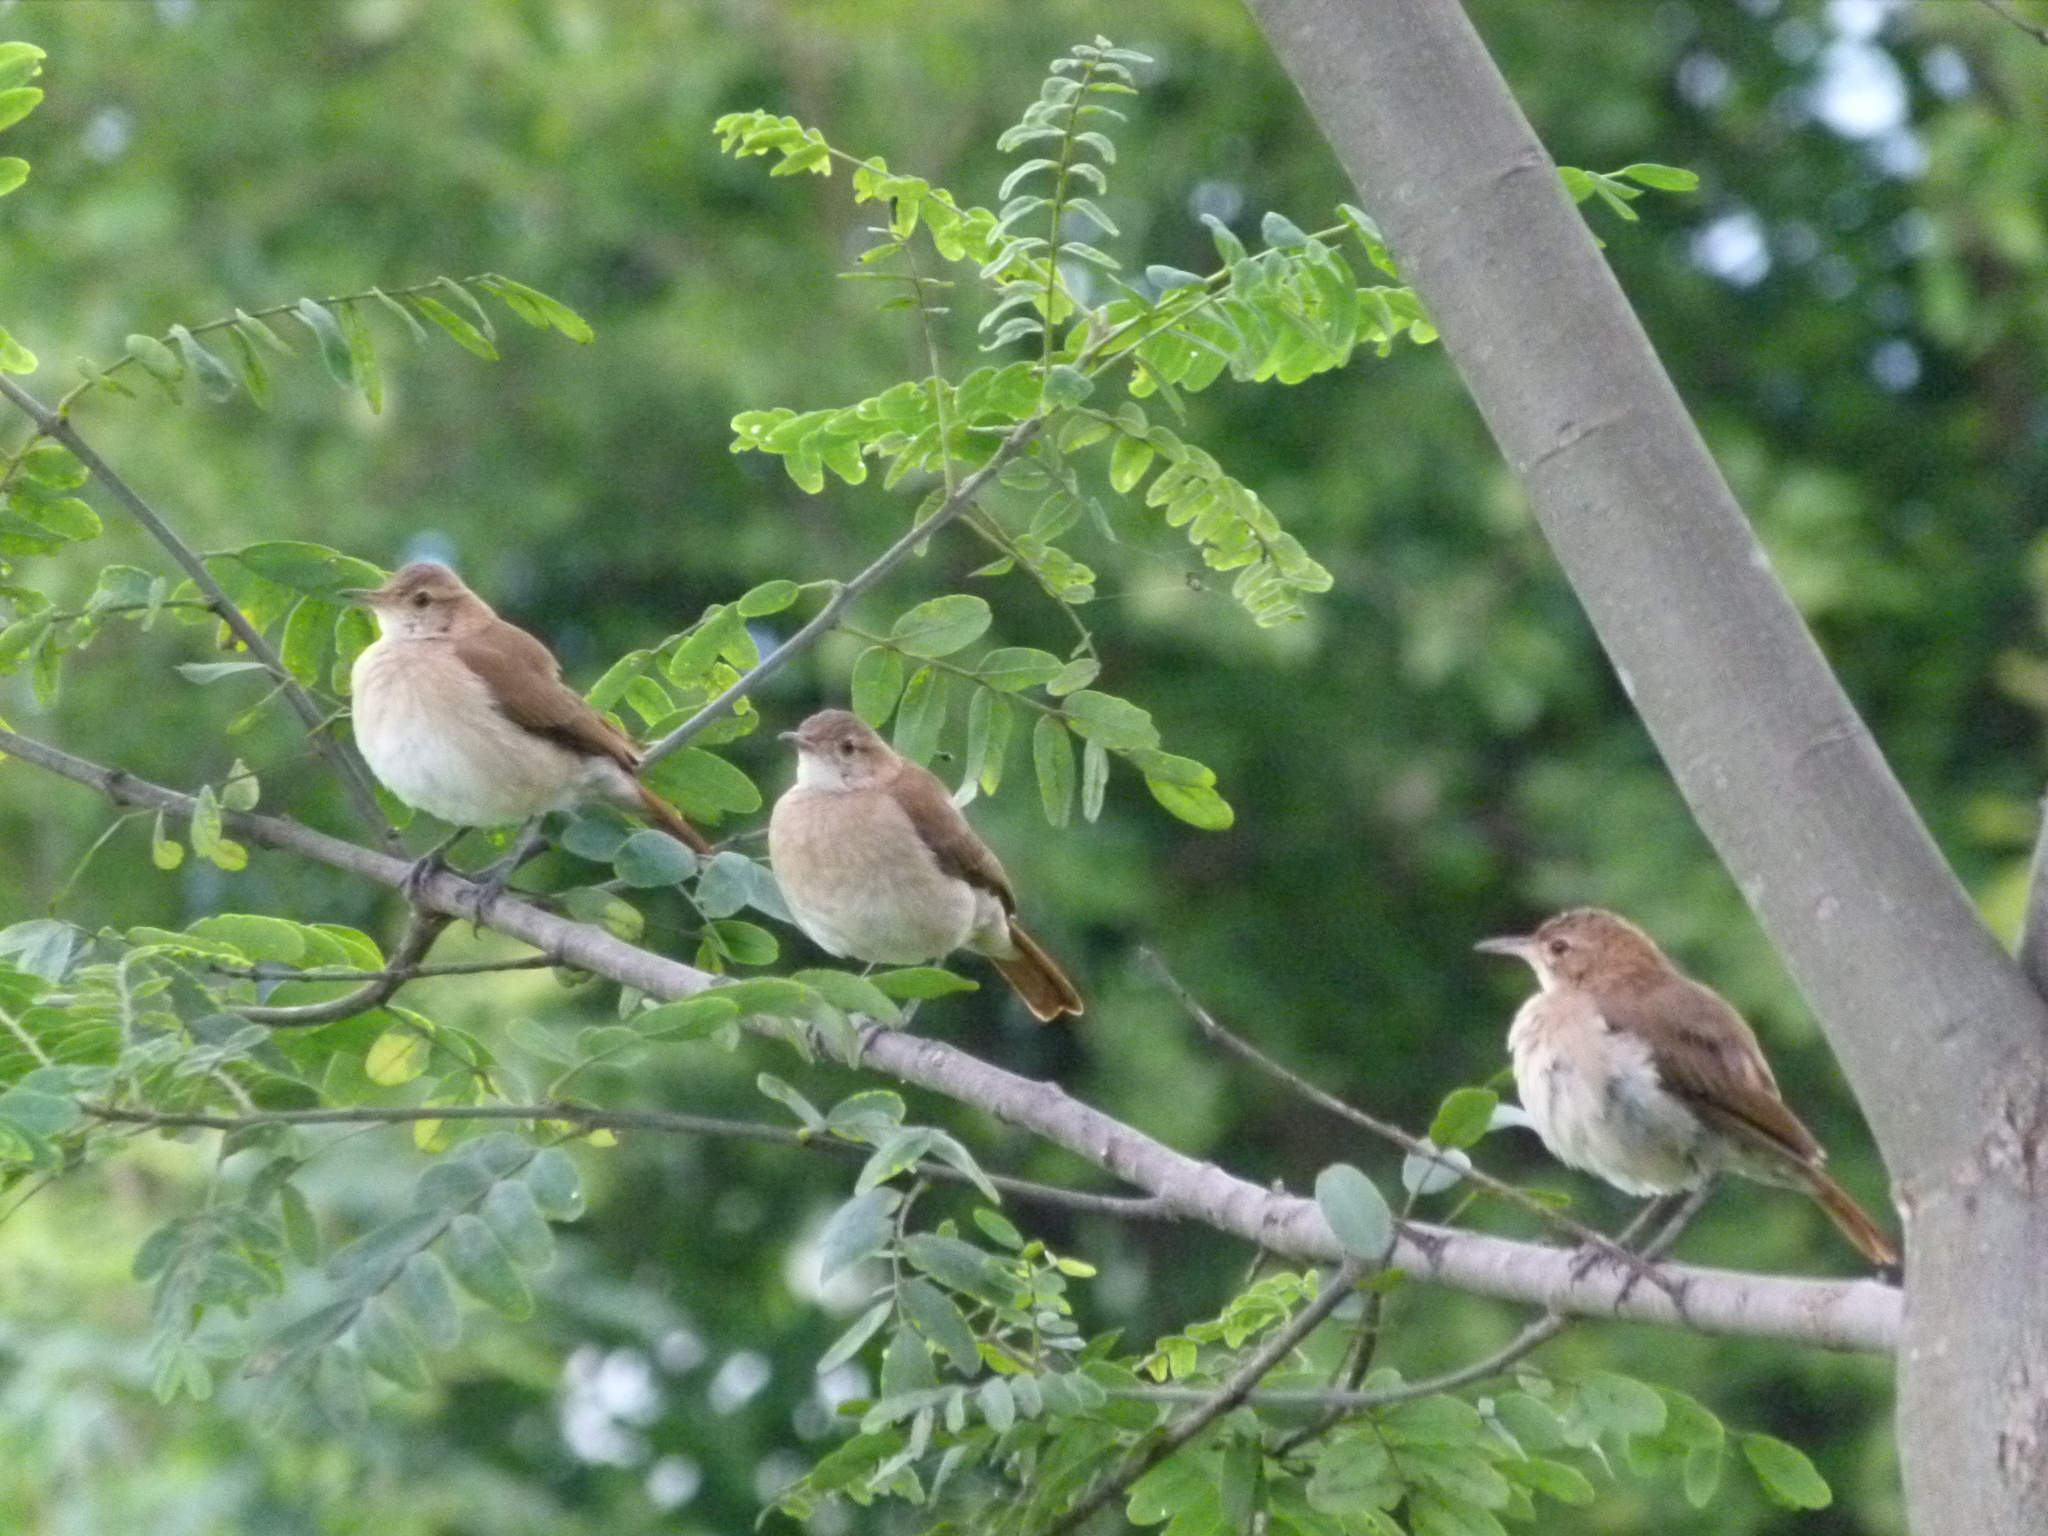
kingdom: Animalia
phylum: Chordata
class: Aves
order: Passeriformes
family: Furnariidae
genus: Furnarius
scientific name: Furnarius rufus
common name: Rufous hornero
